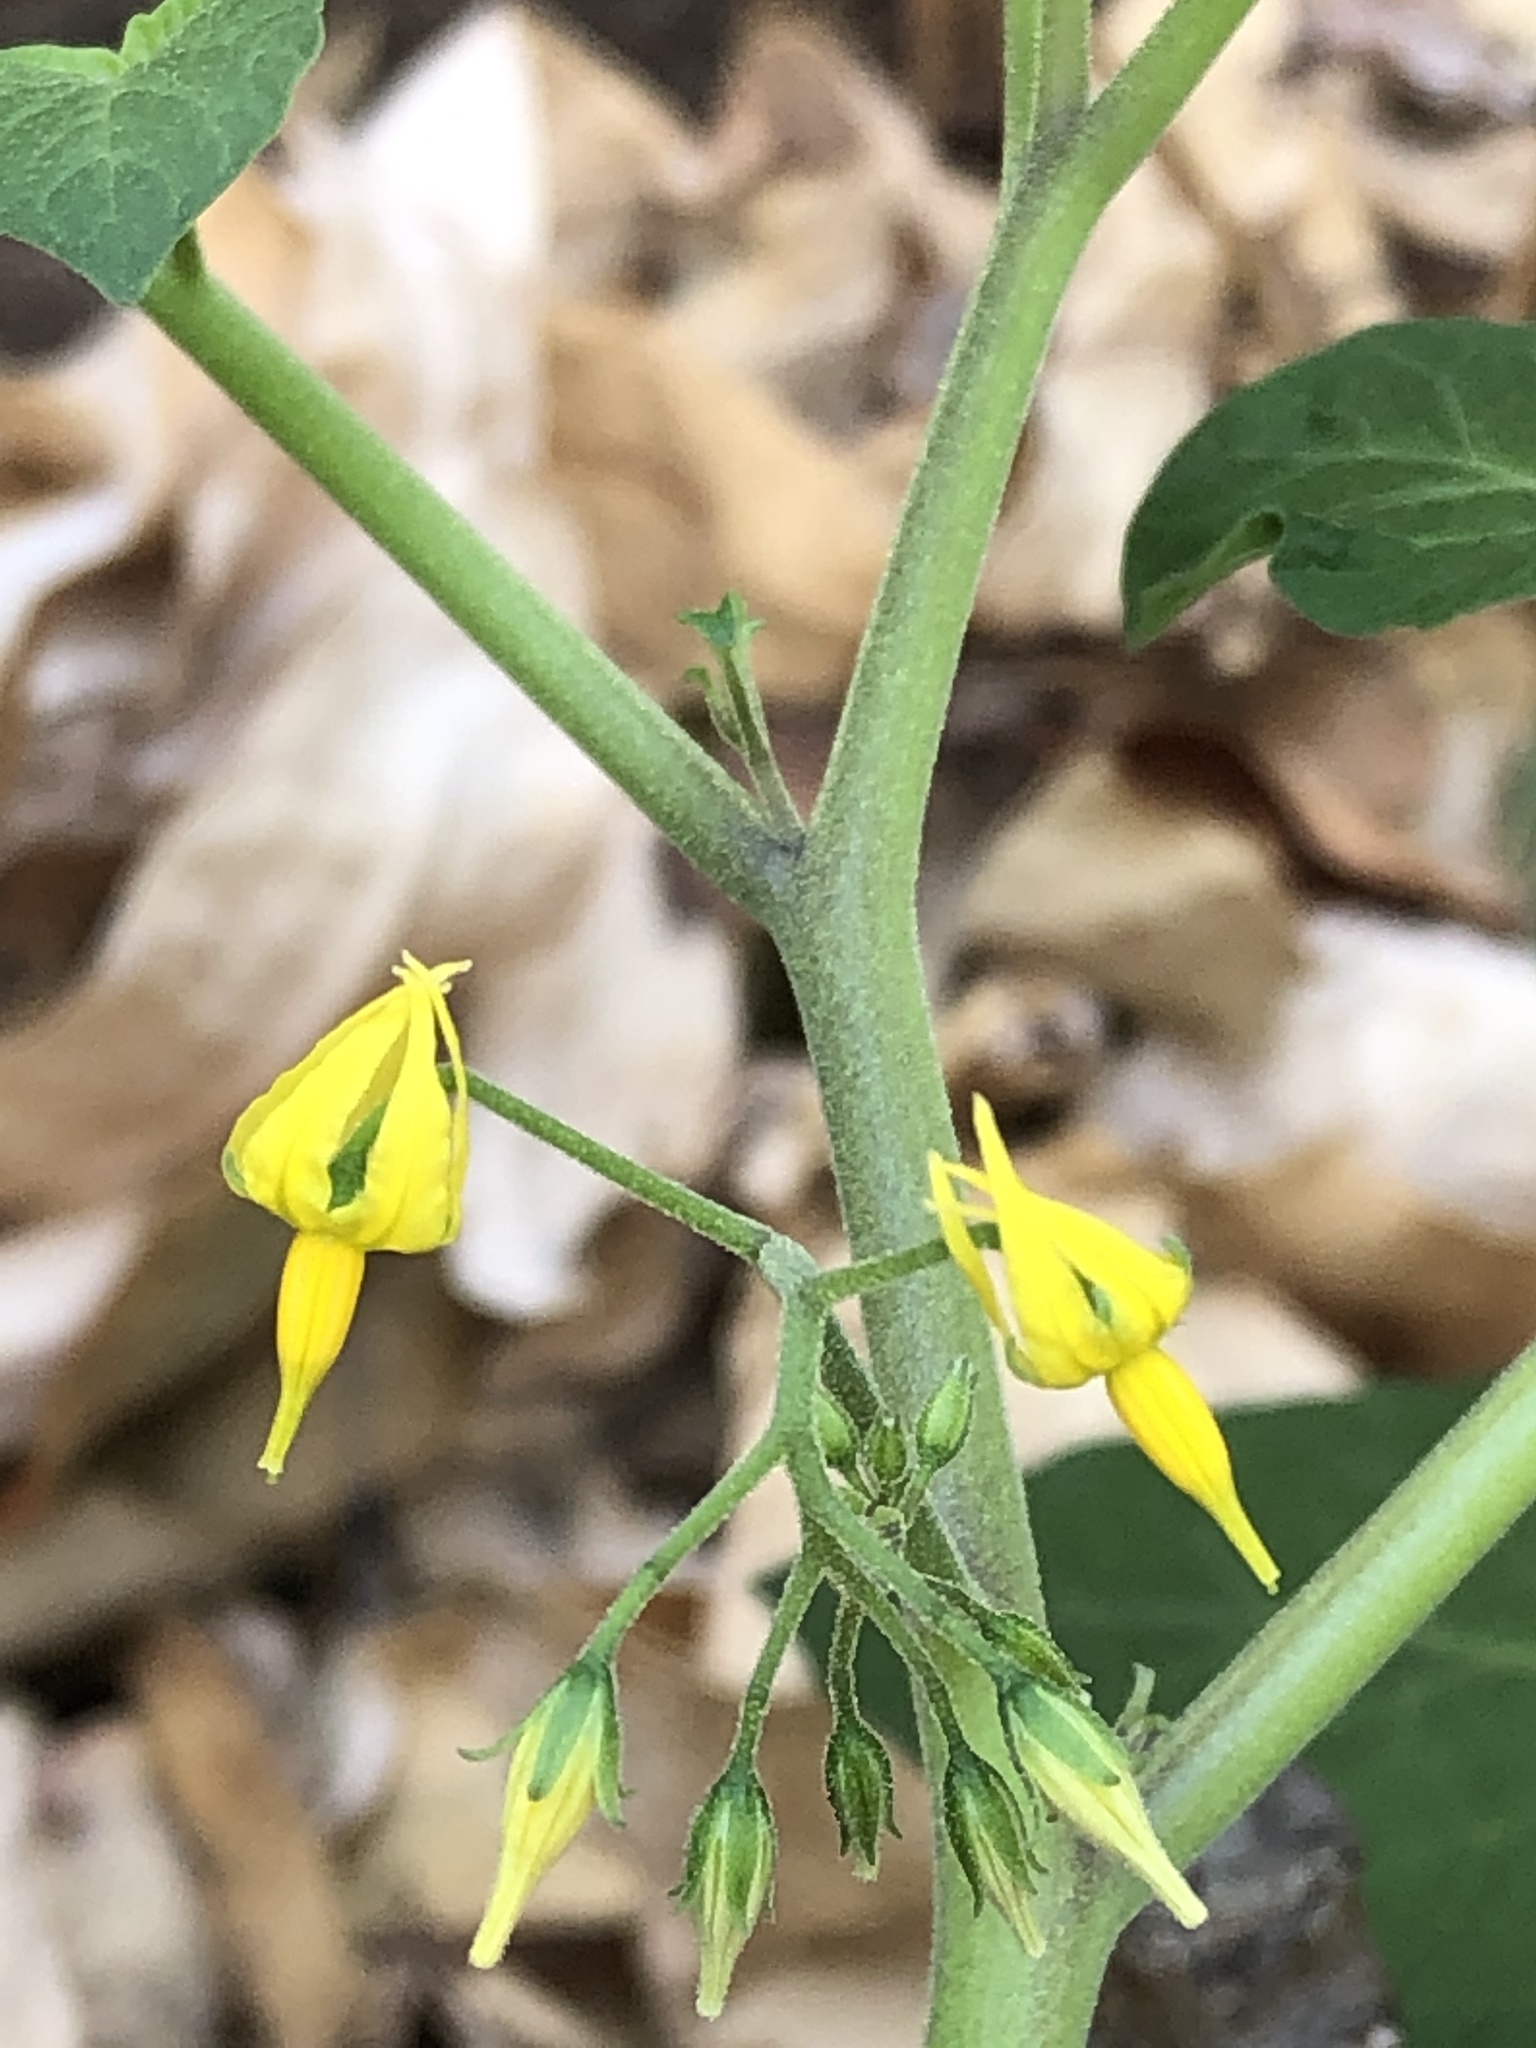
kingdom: Plantae
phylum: Tracheophyta
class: Magnoliopsida
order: Solanales
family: Solanaceae
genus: Solanum
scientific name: Solanum pimpinellifolium
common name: Currant-tomato
